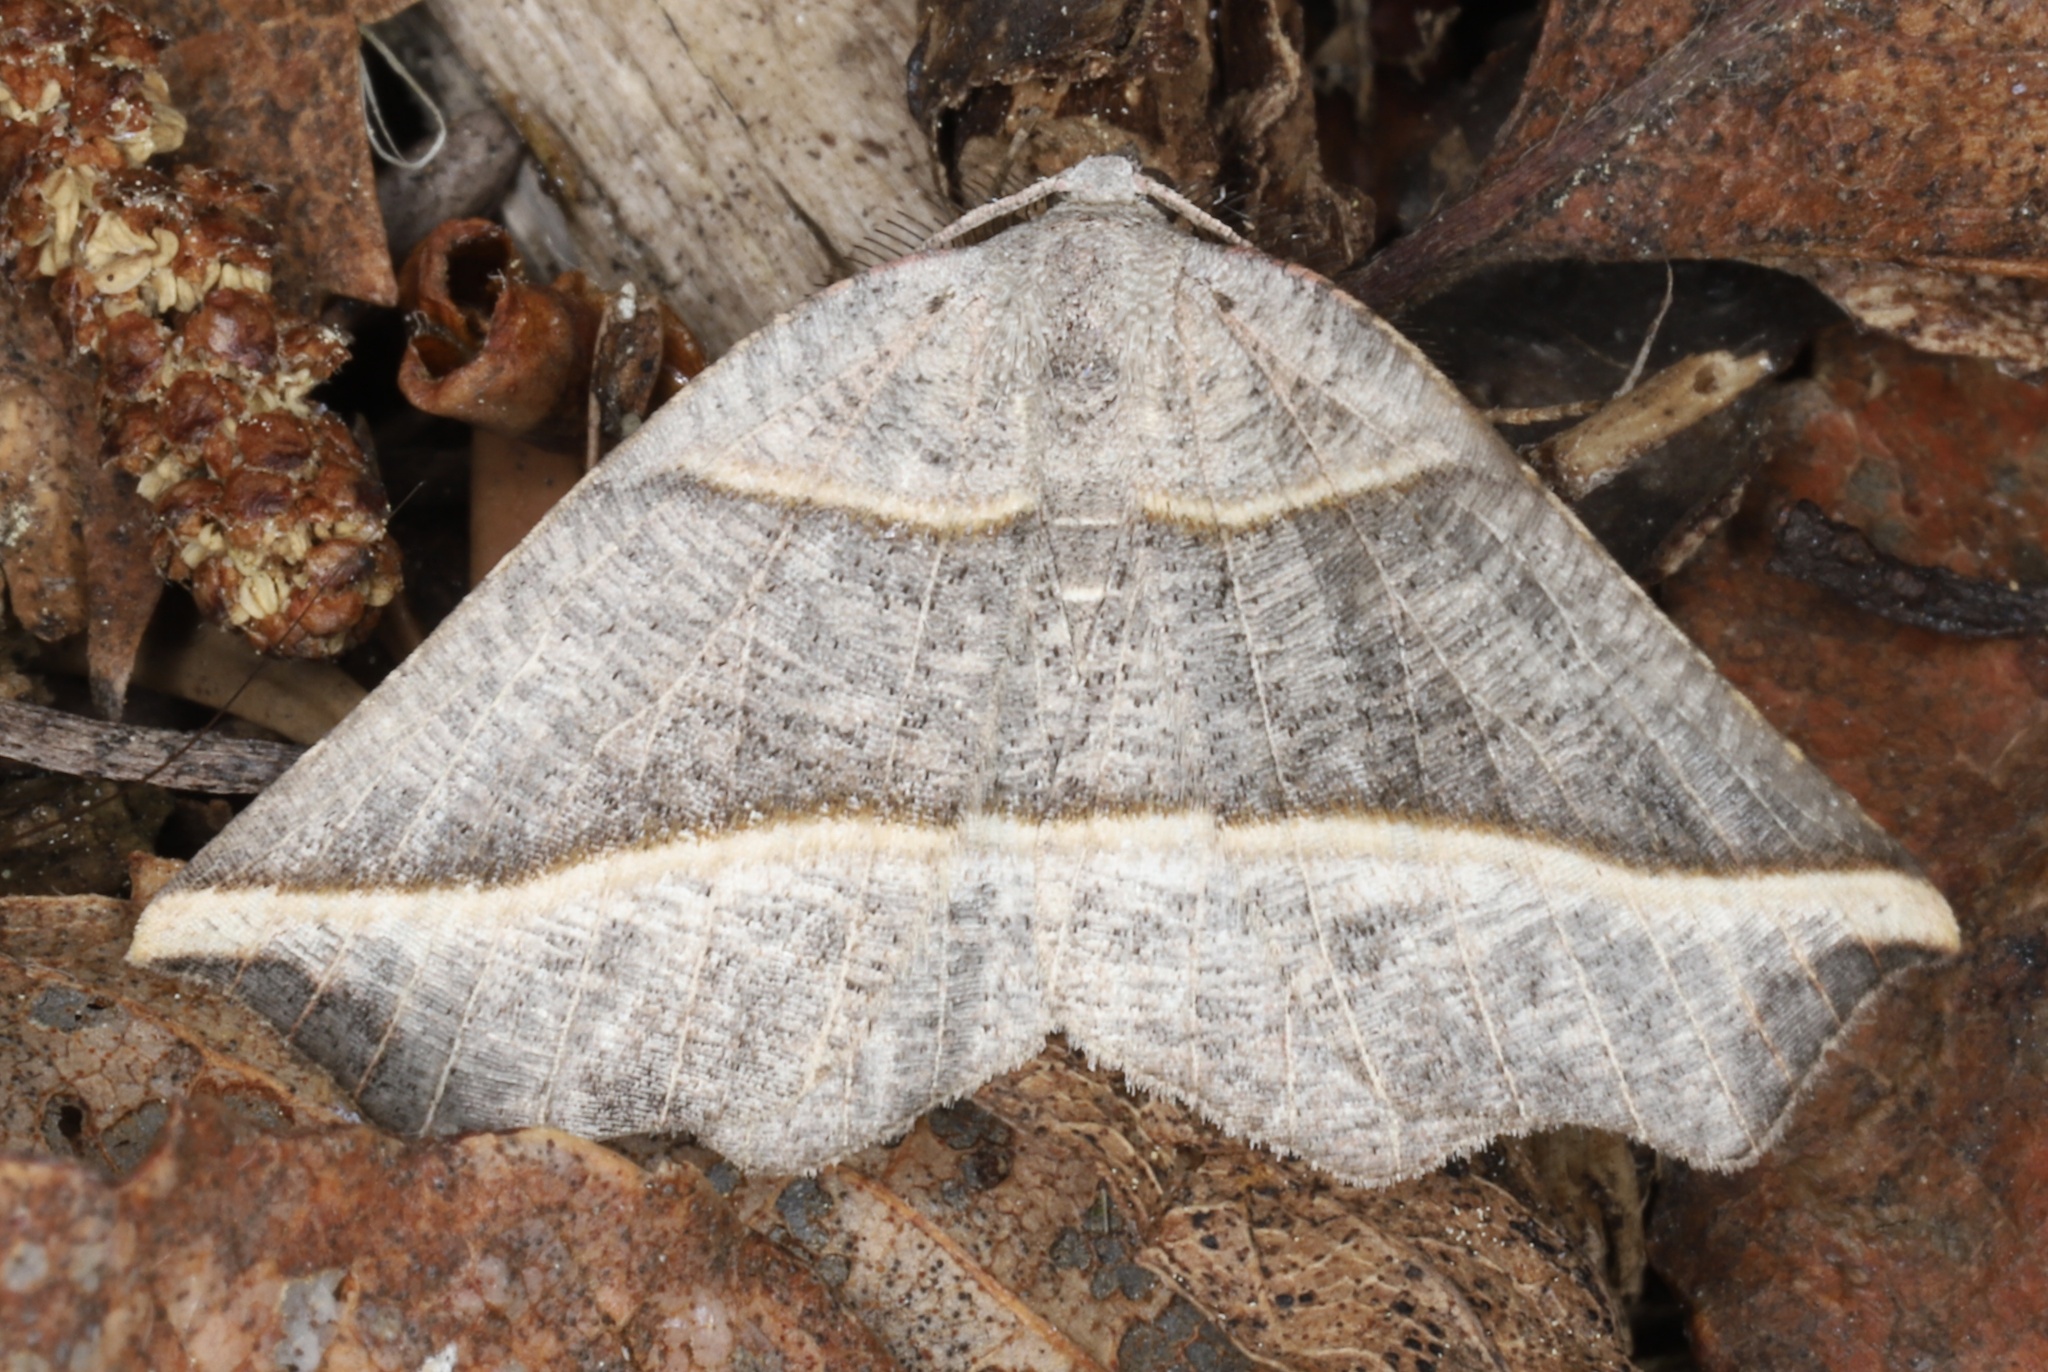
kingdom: Animalia
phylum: Arthropoda
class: Insecta
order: Lepidoptera
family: Geometridae
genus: Metanema
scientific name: Metanema determinata
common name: Dark metanema
